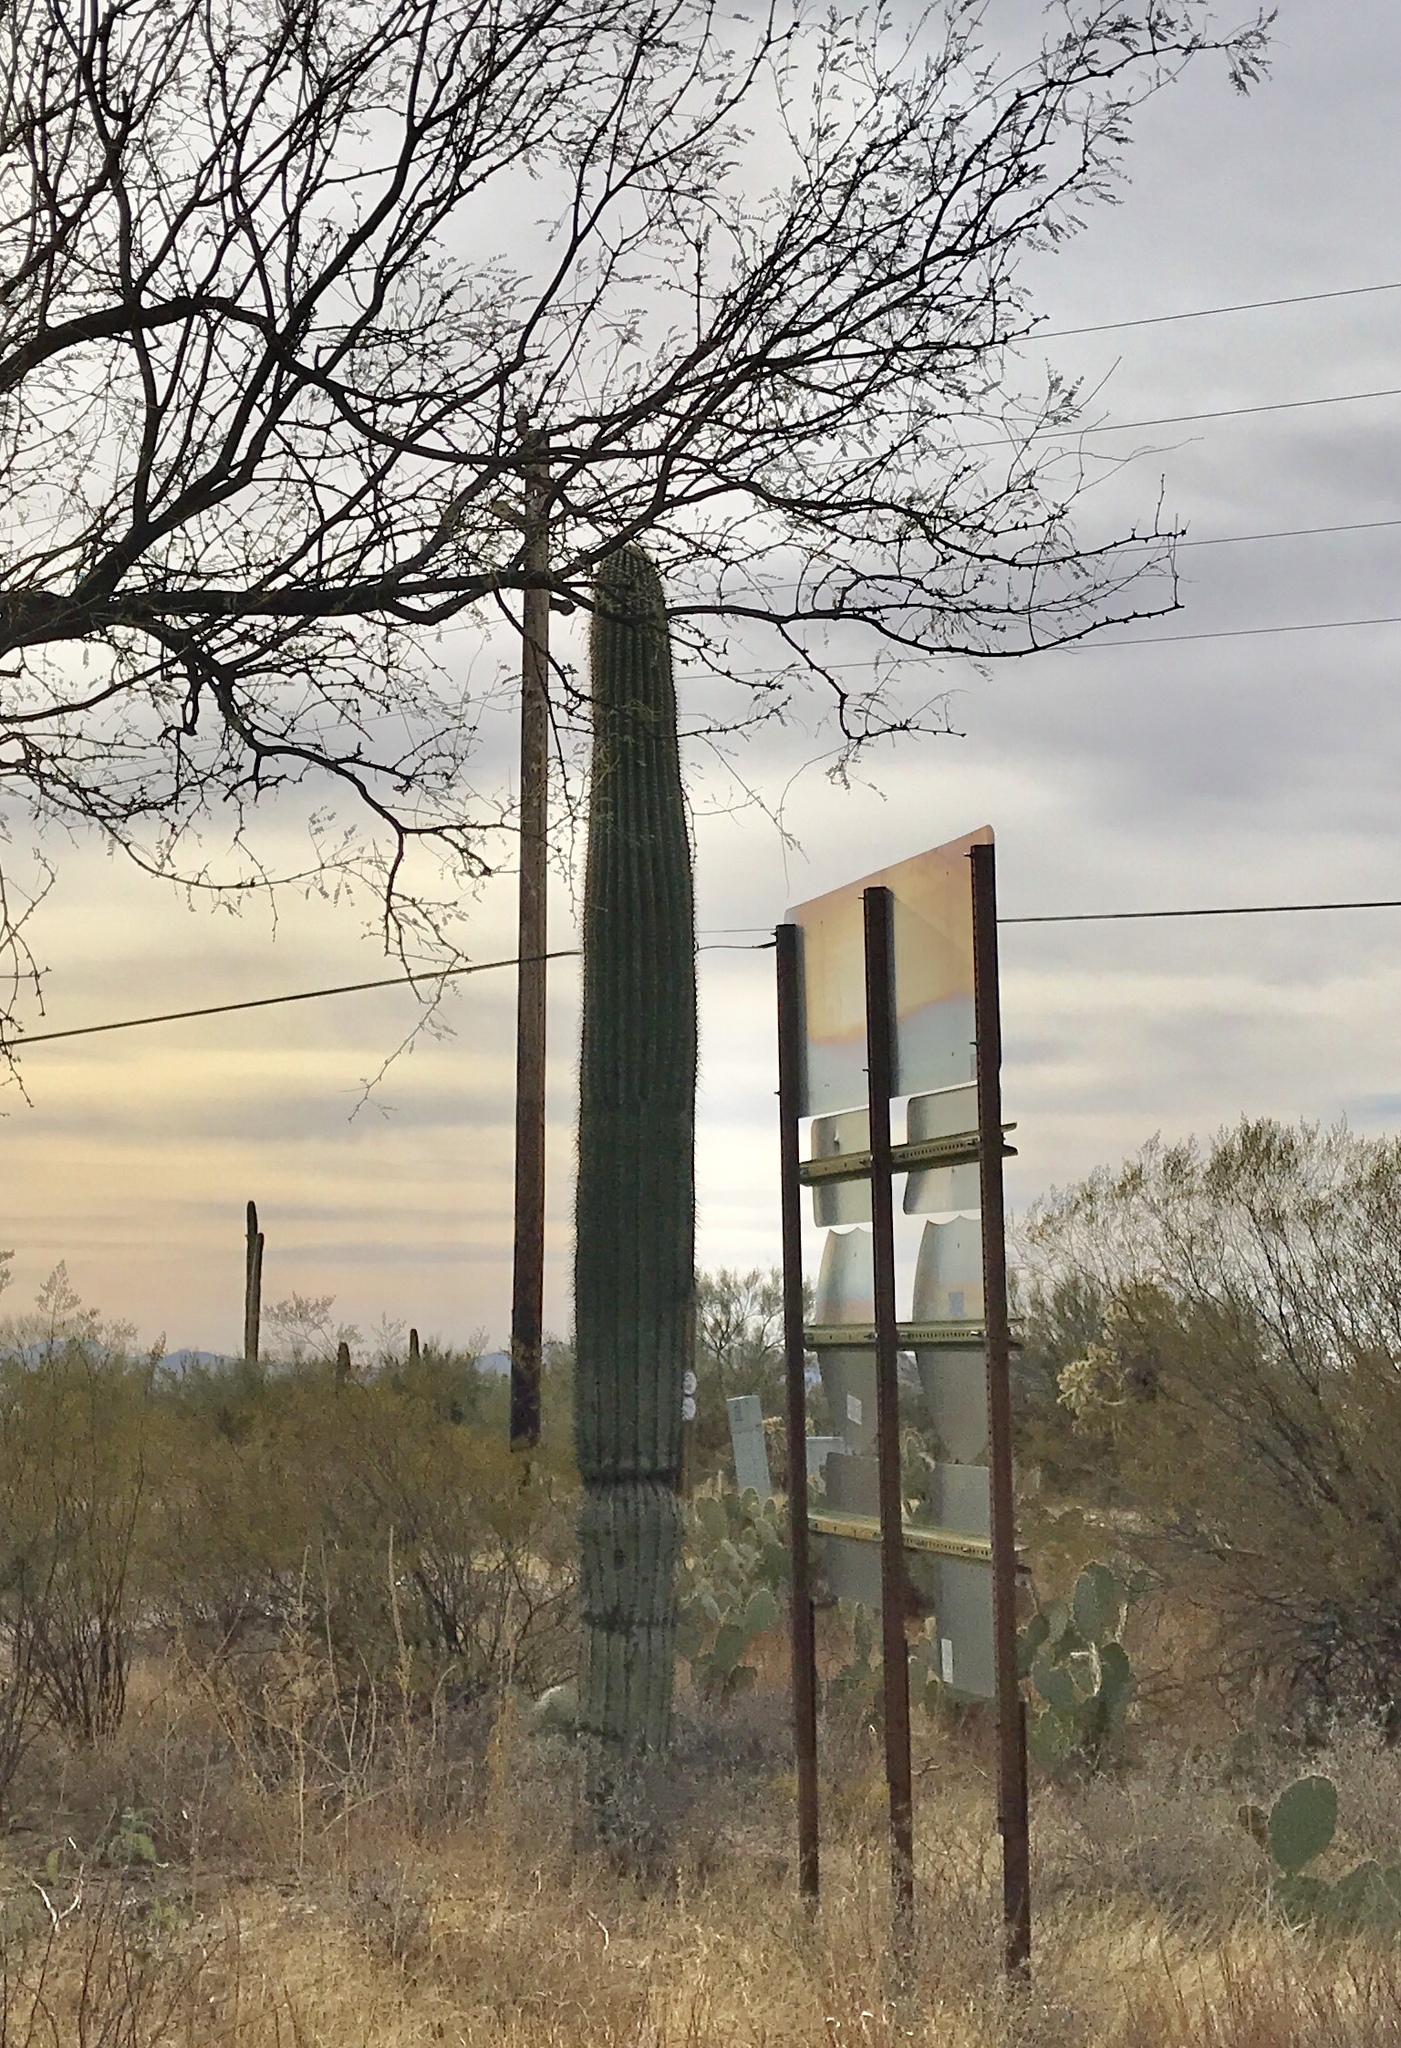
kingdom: Plantae
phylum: Tracheophyta
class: Magnoliopsida
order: Caryophyllales
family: Cactaceae
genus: Carnegiea
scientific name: Carnegiea gigantea
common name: Saguaro
